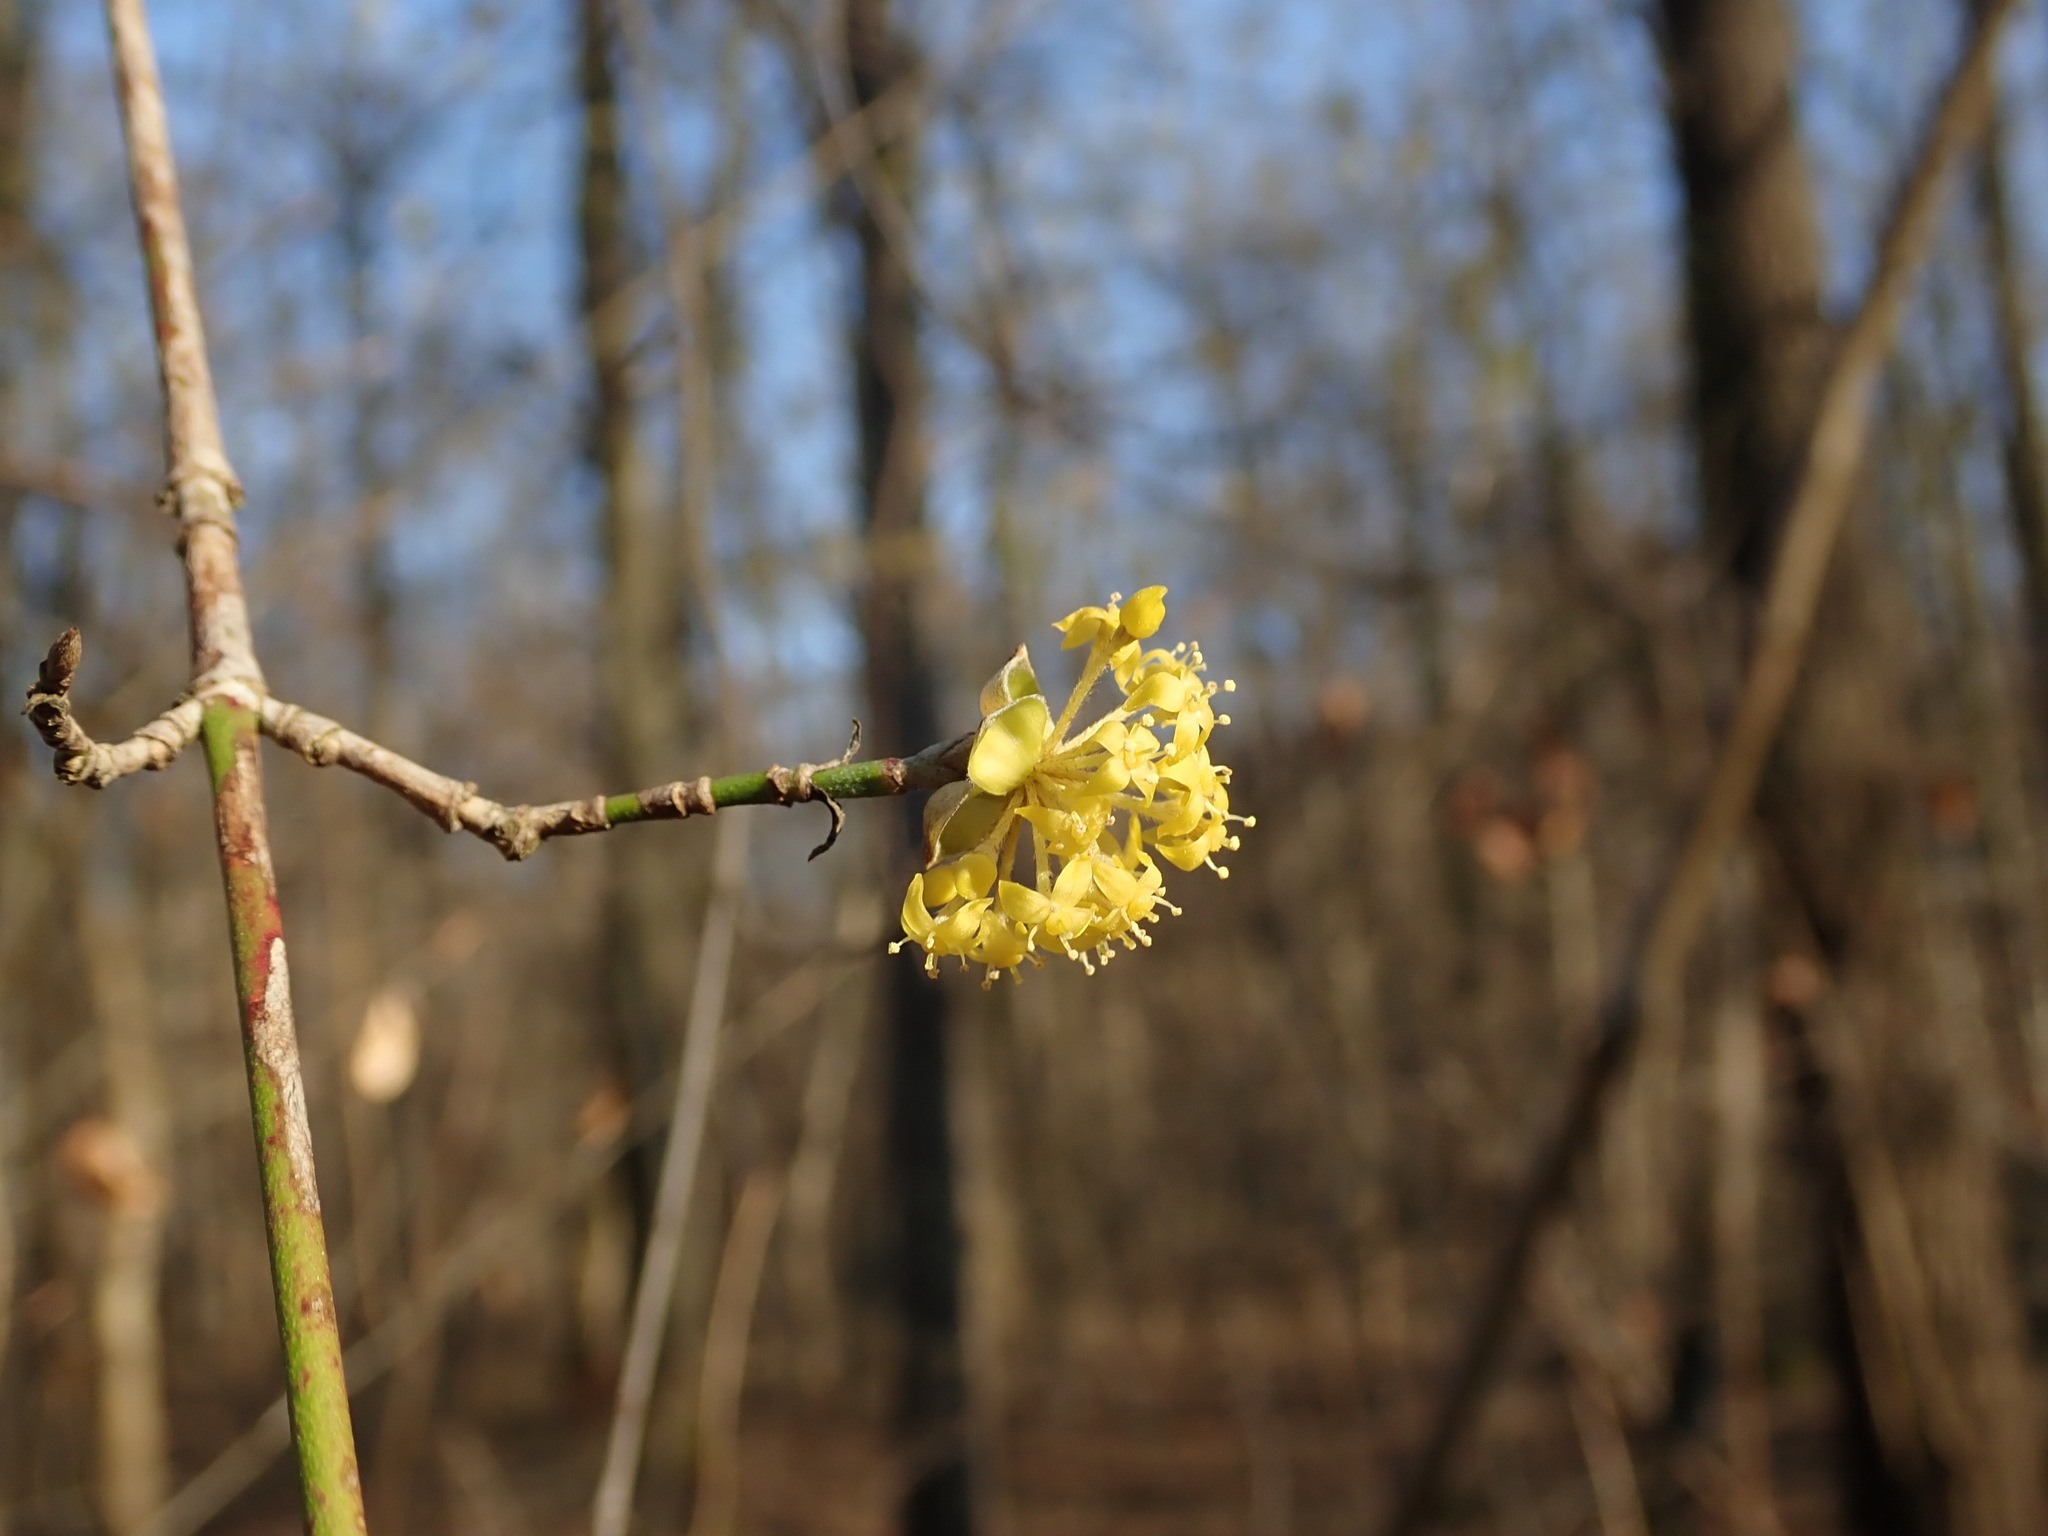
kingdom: Plantae
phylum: Tracheophyta
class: Magnoliopsida
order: Cornales
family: Cornaceae
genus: Cornus
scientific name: Cornus mas
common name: Cornelian-cherry
